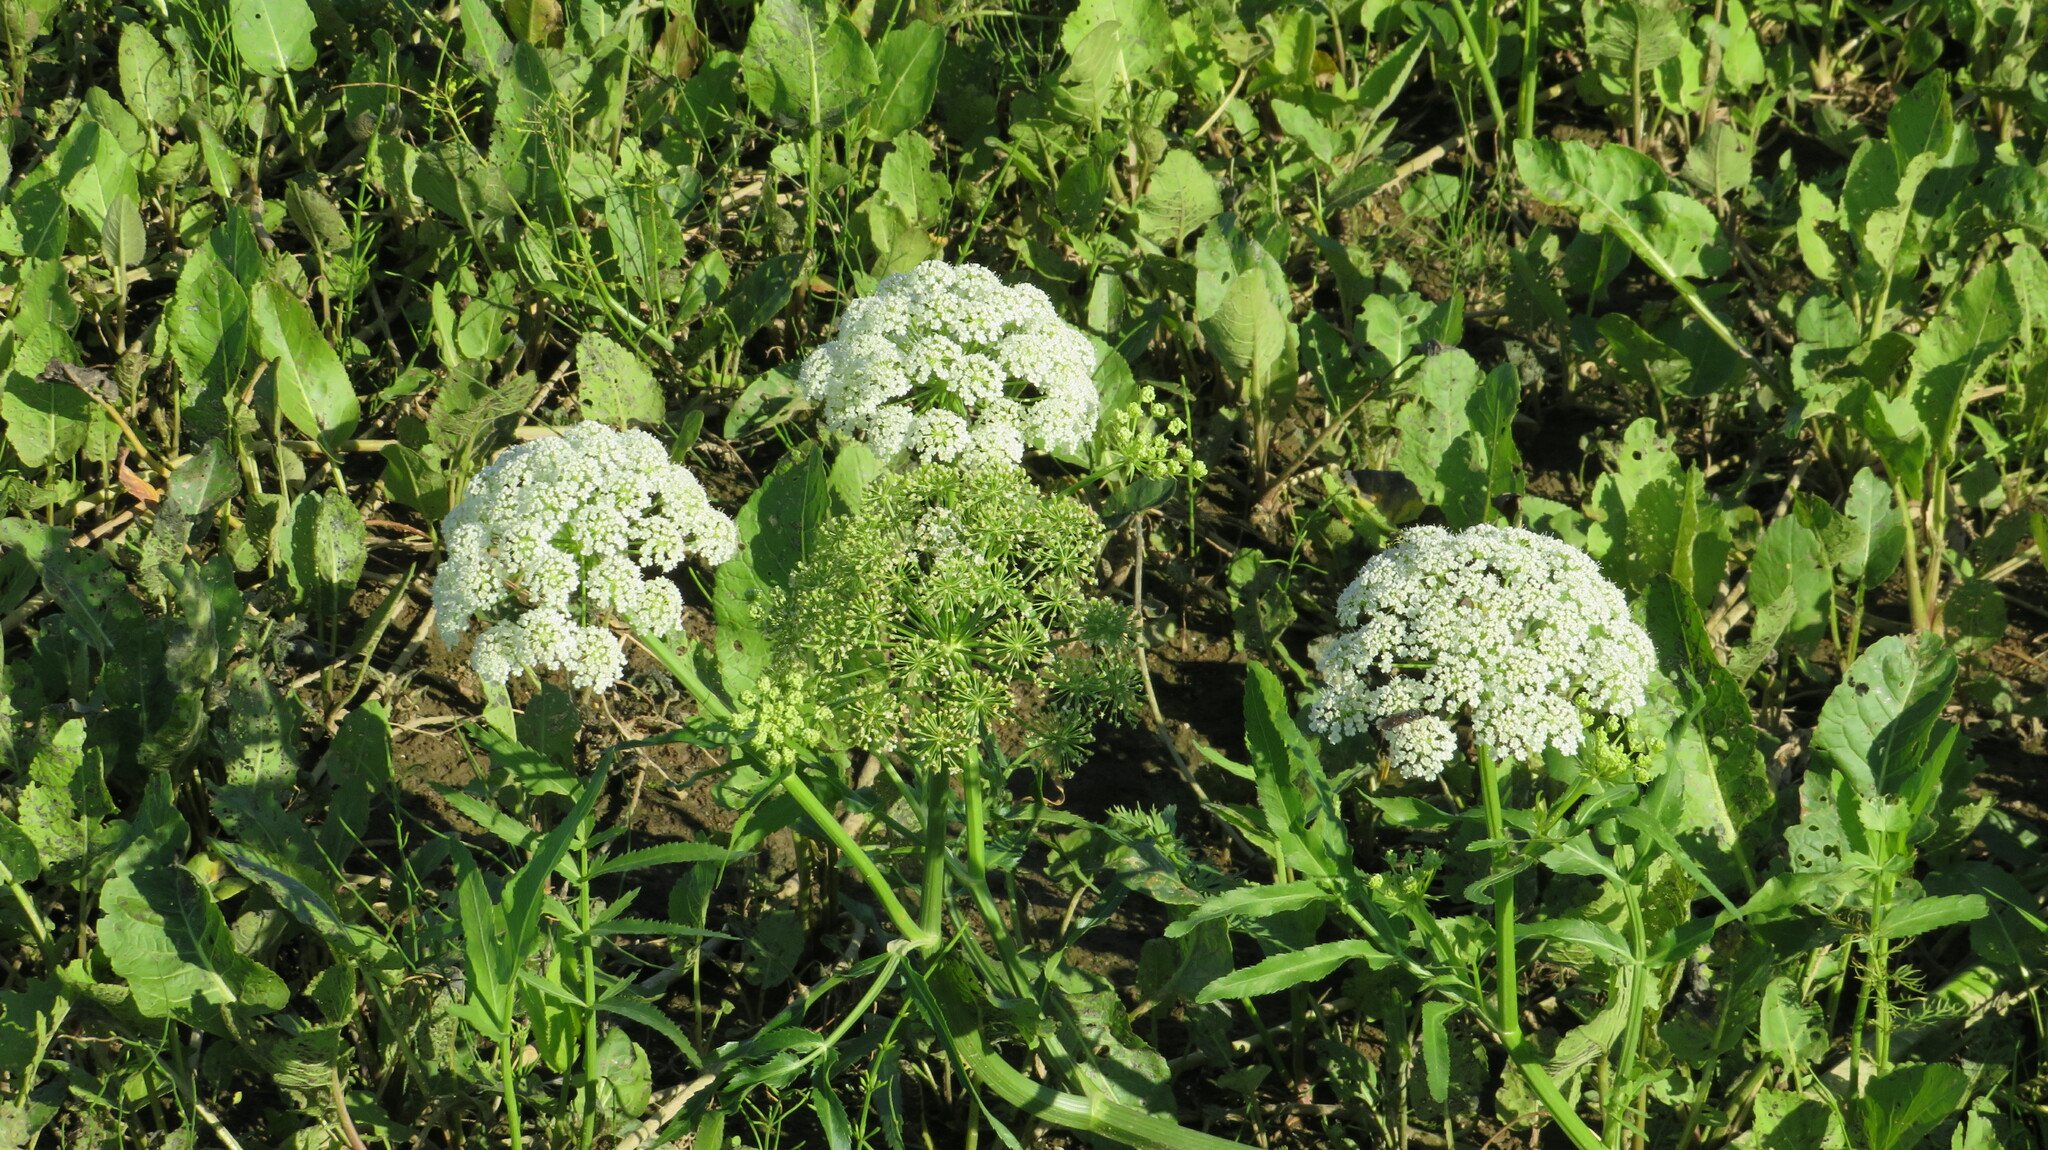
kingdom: Plantae
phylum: Tracheophyta
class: Magnoliopsida
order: Apiales
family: Apiaceae
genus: Sium
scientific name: Sium latifolium
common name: Greater water-parsnip
